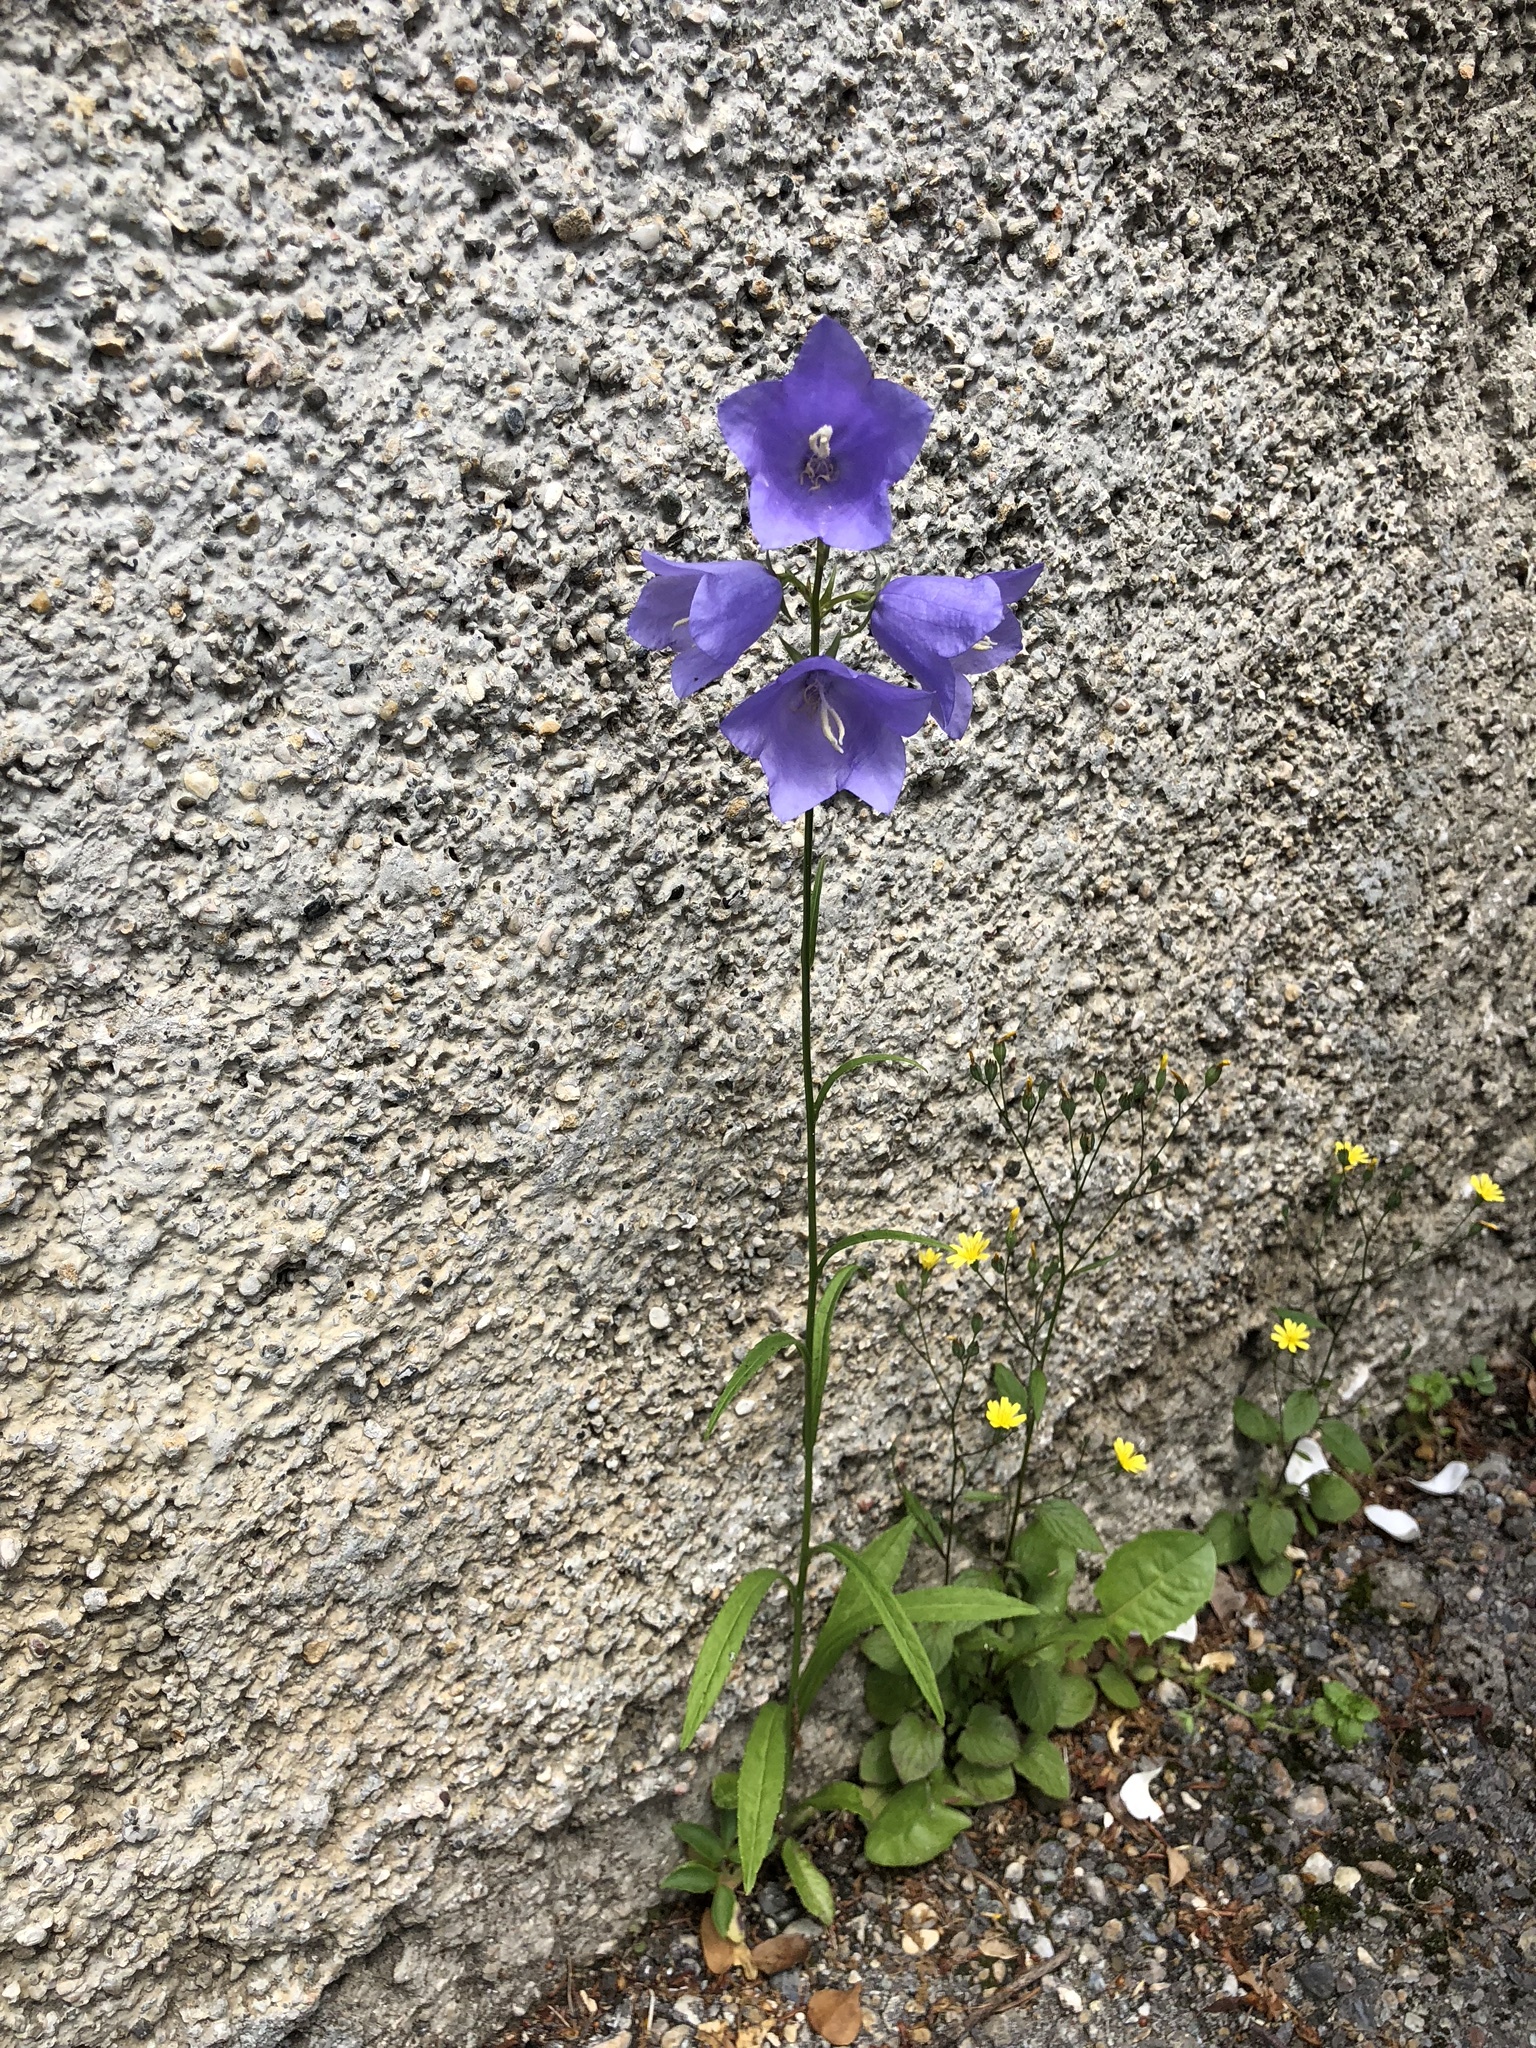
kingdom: Plantae
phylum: Tracheophyta
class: Magnoliopsida
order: Asterales
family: Campanulaceae
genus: Campanula
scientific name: Campanula persicifolia
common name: Peach-leaved bellflower
